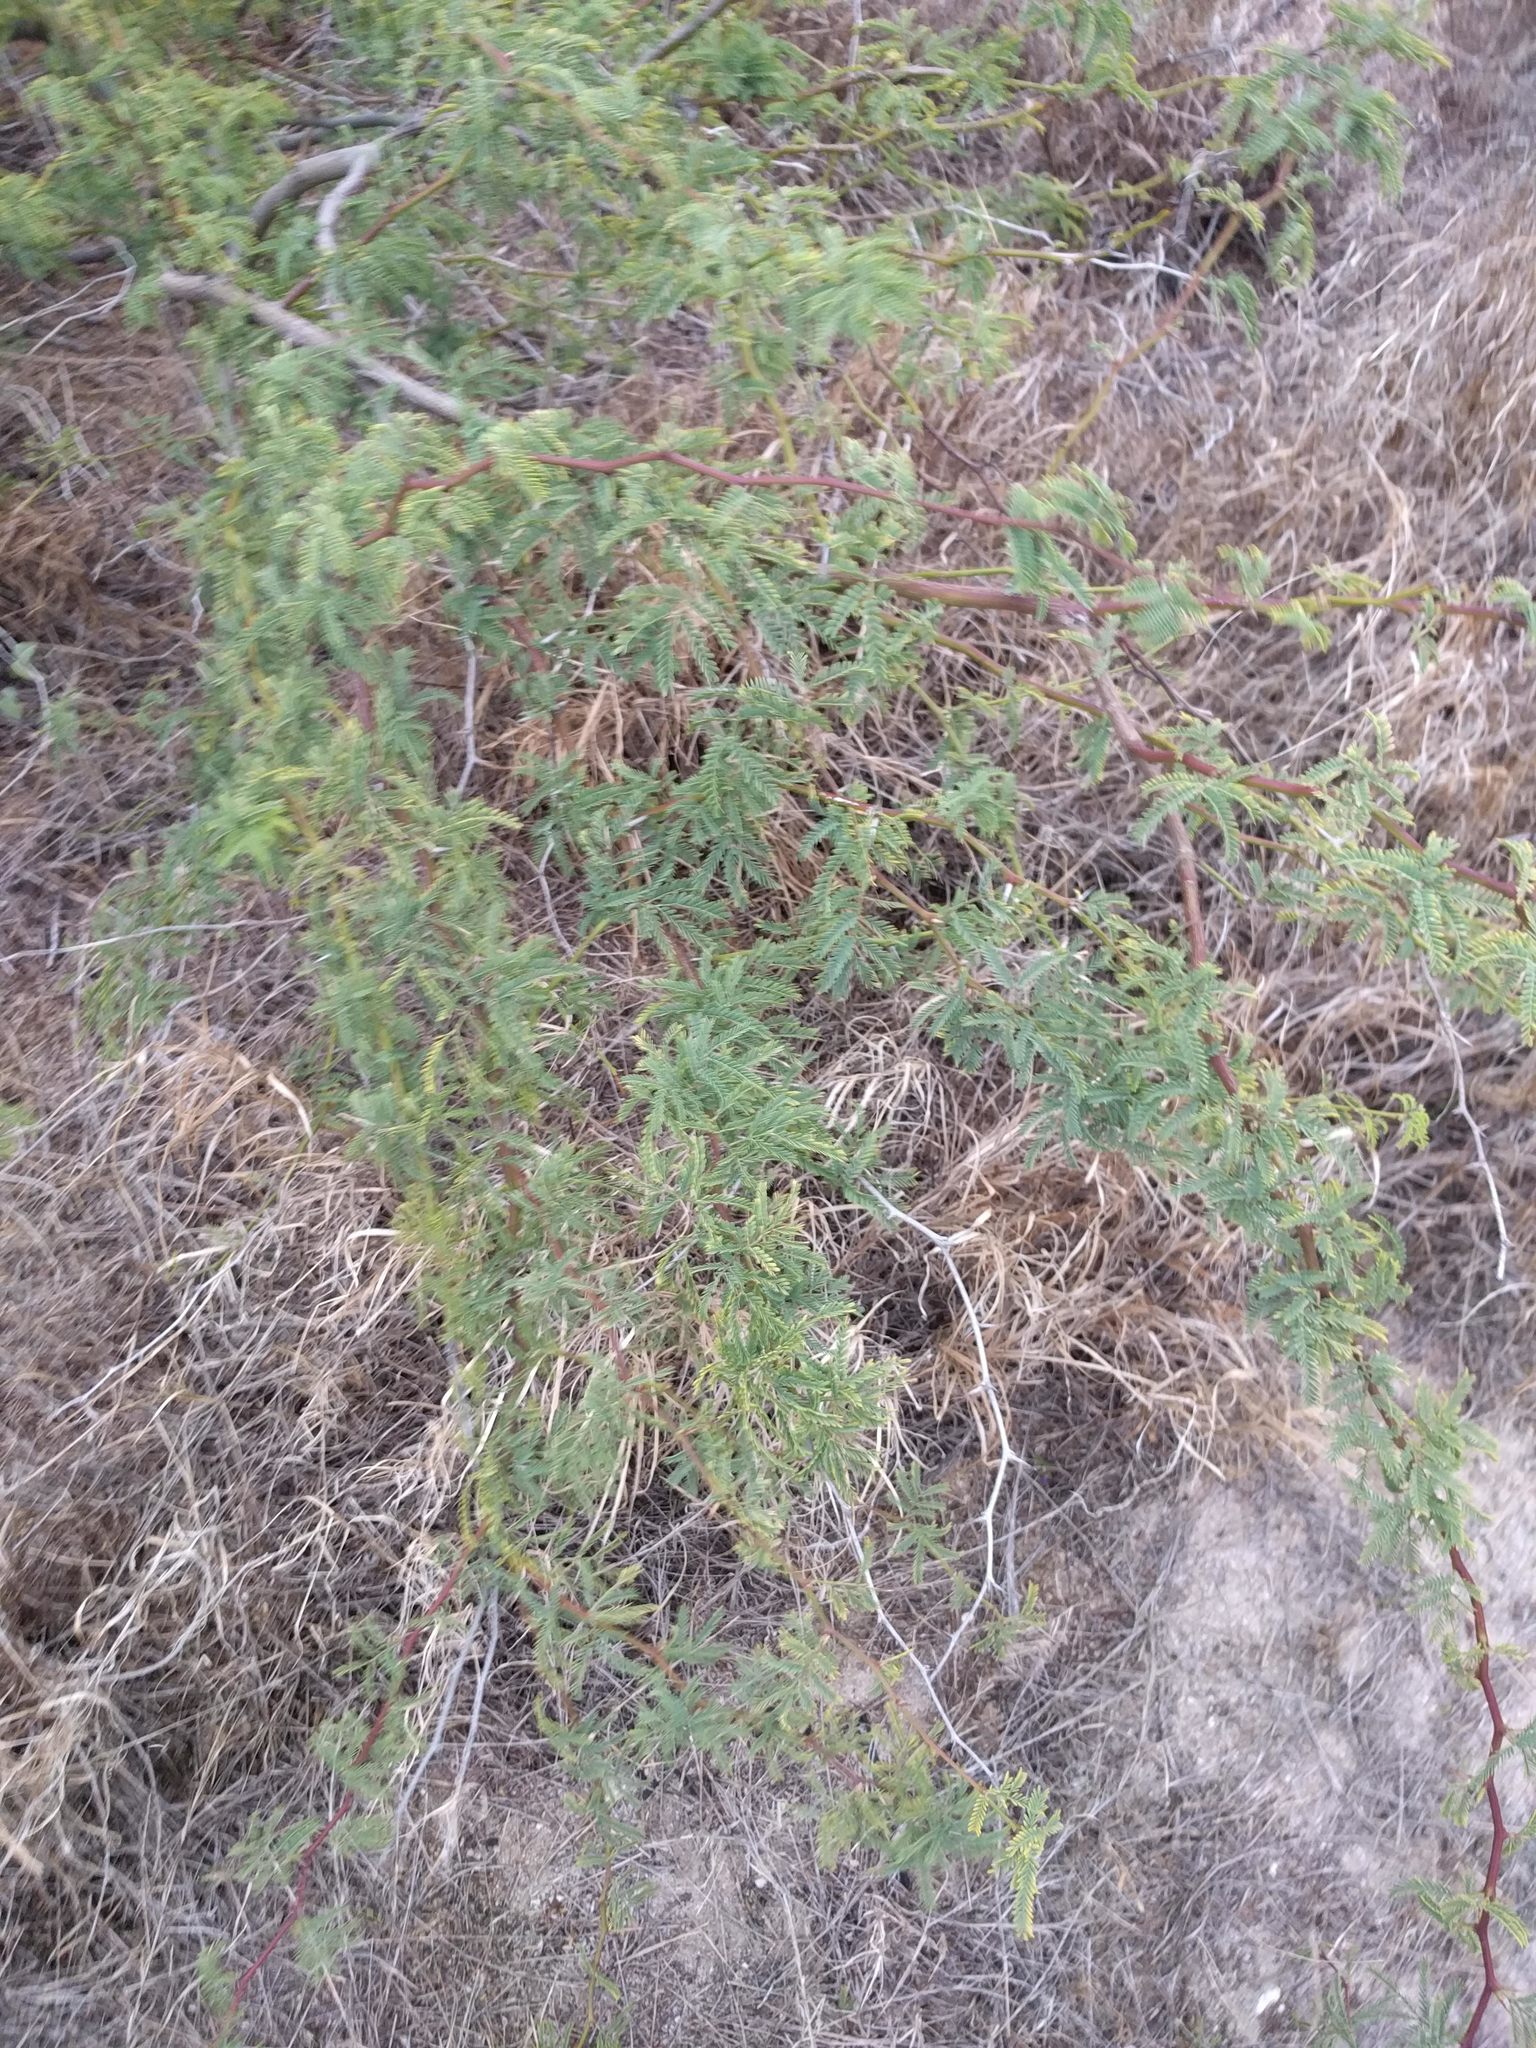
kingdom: Plantae
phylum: Tracheophyta
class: Magnoliopsida
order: Fabales
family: Fabaceae
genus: Prosopis
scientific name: Prosopis pallida
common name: Mesquite
